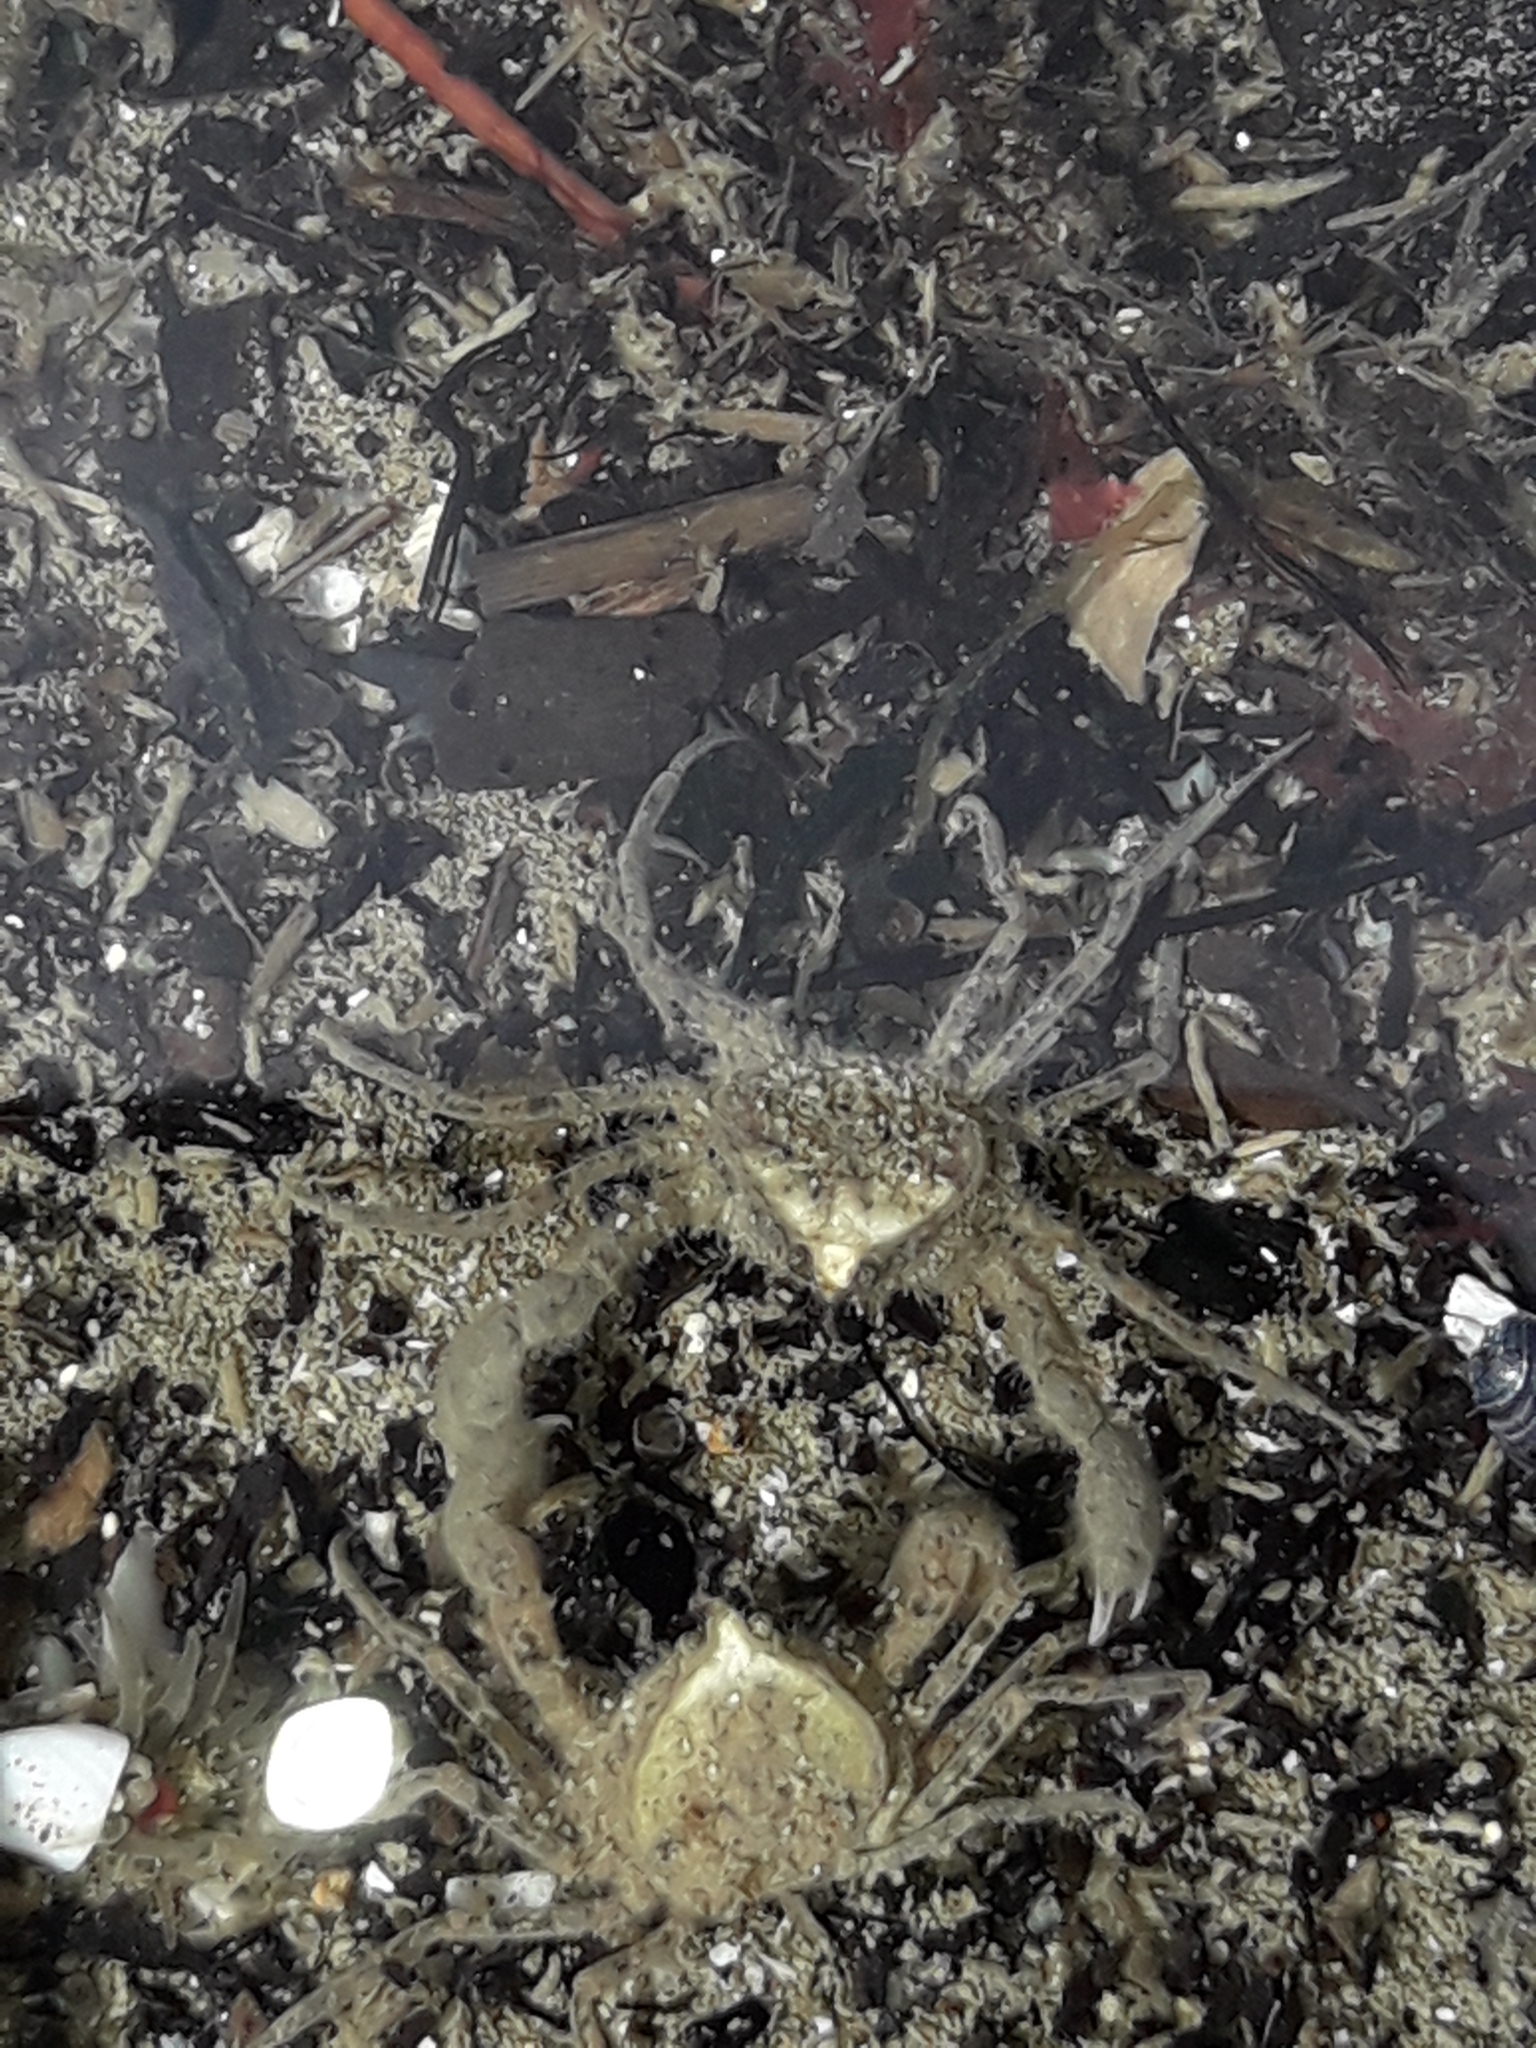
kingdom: Animalia
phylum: Arthropoda
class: Malacostraca
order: Decapoda
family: Hymenosomatidae
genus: Halicarcinus
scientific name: Halicarcinus whitei
